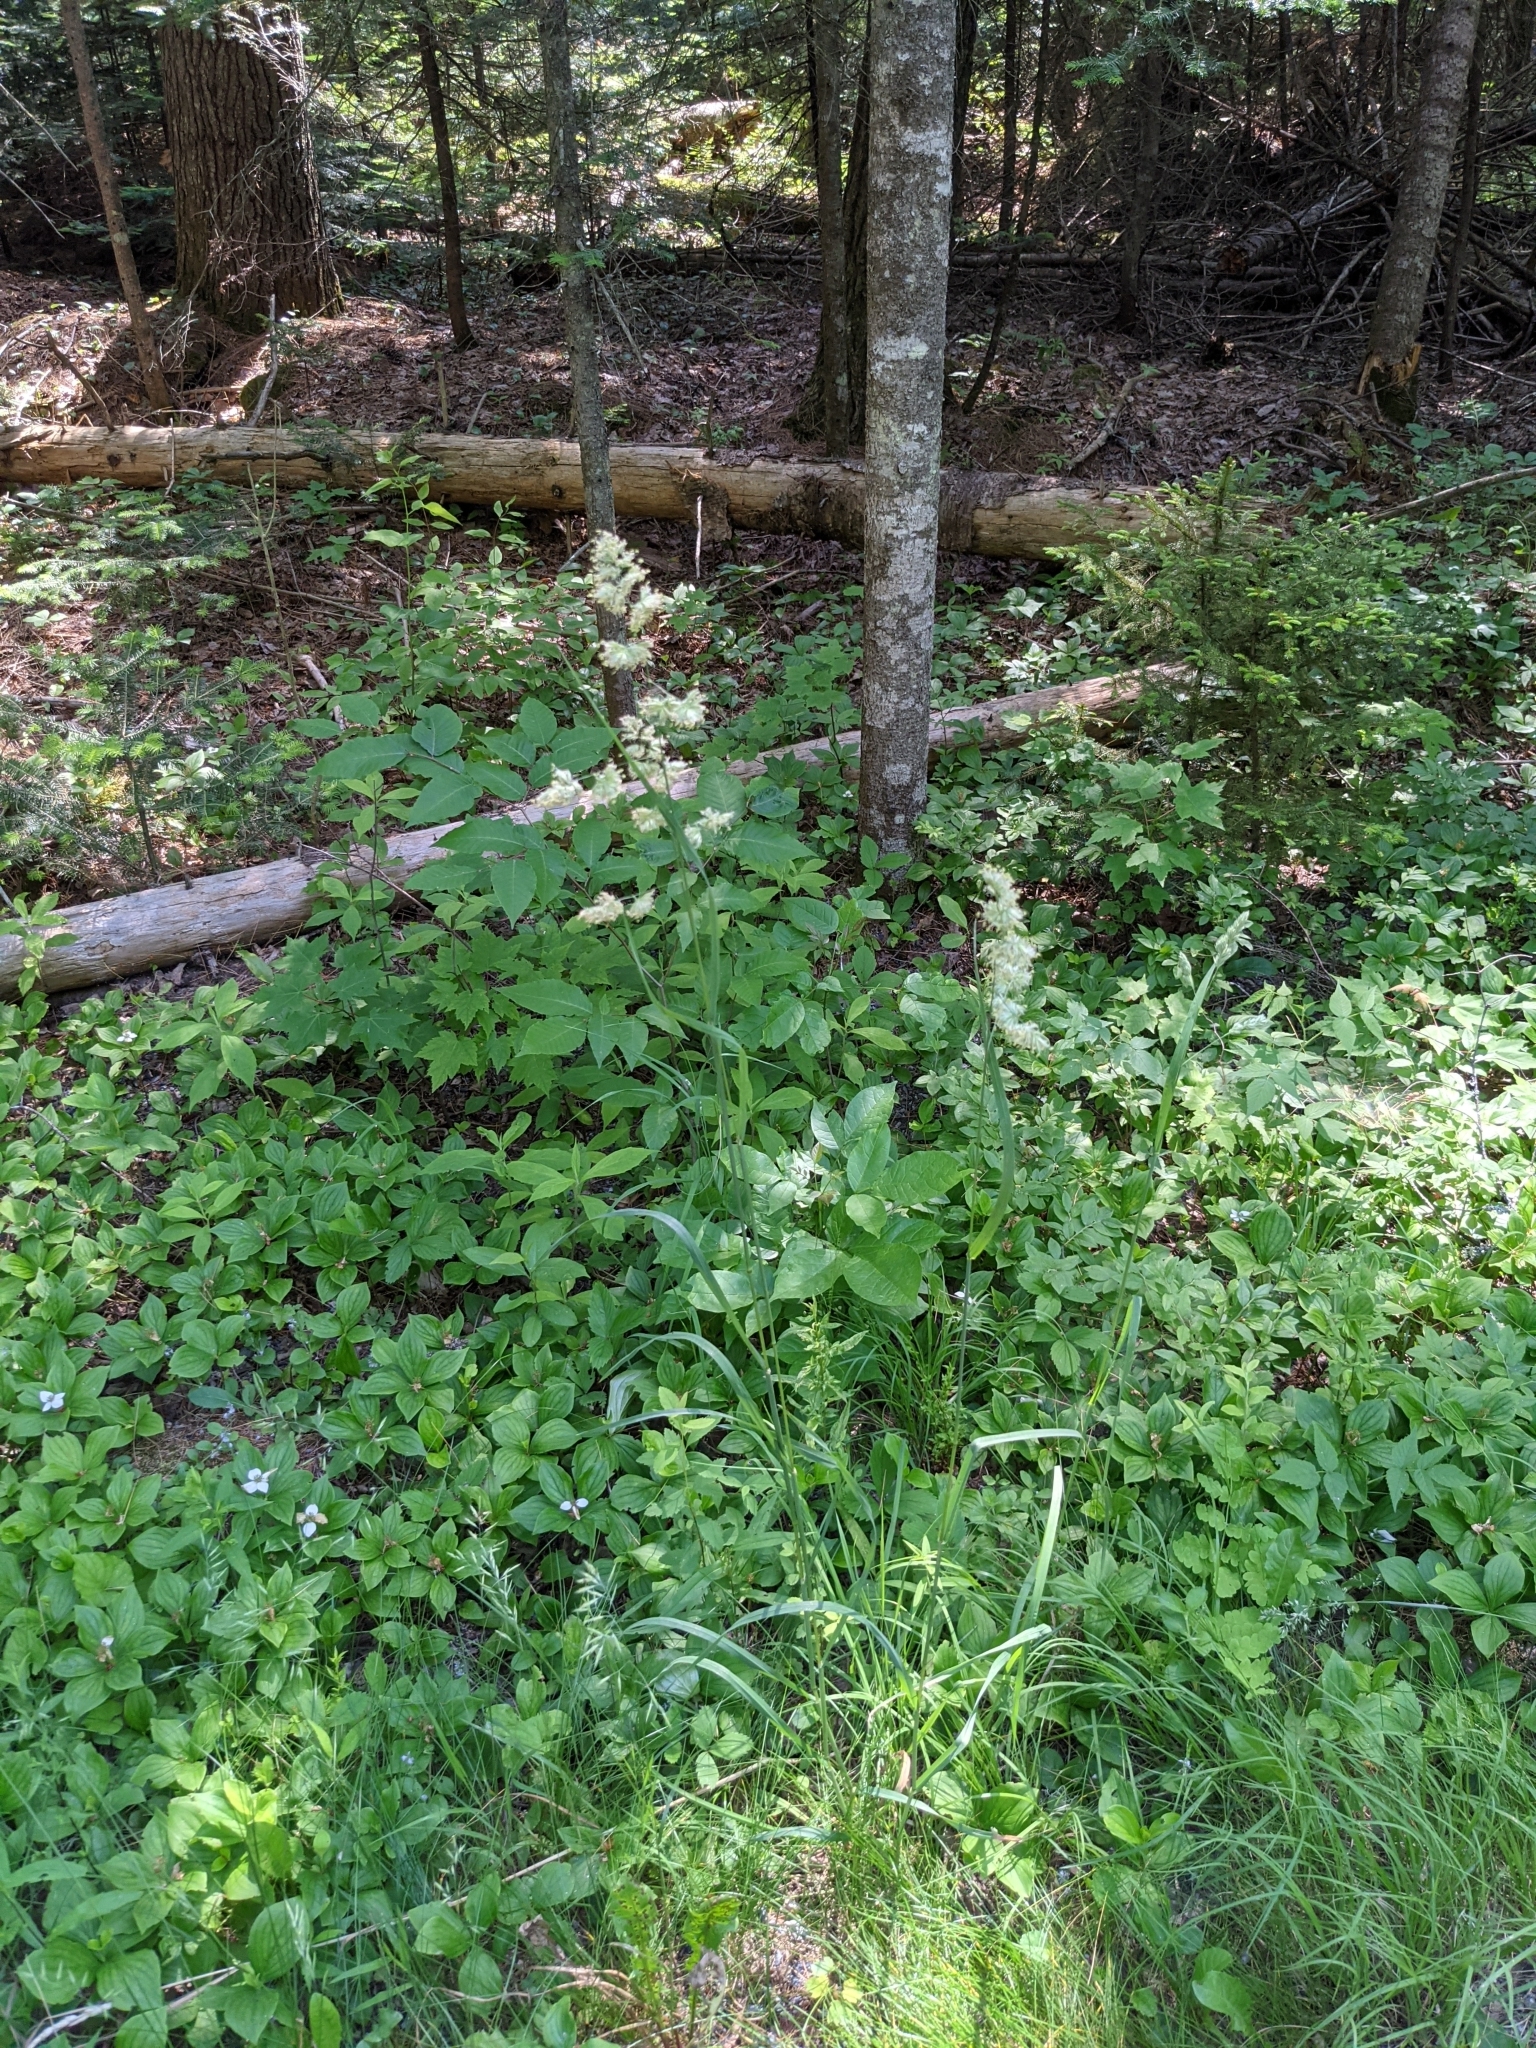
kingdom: Plantae
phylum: Tracheophyta
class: Liliopsida
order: Poales
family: Poaceae
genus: Dactylis
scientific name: Dactylis glomerata
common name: Orchardgrass
